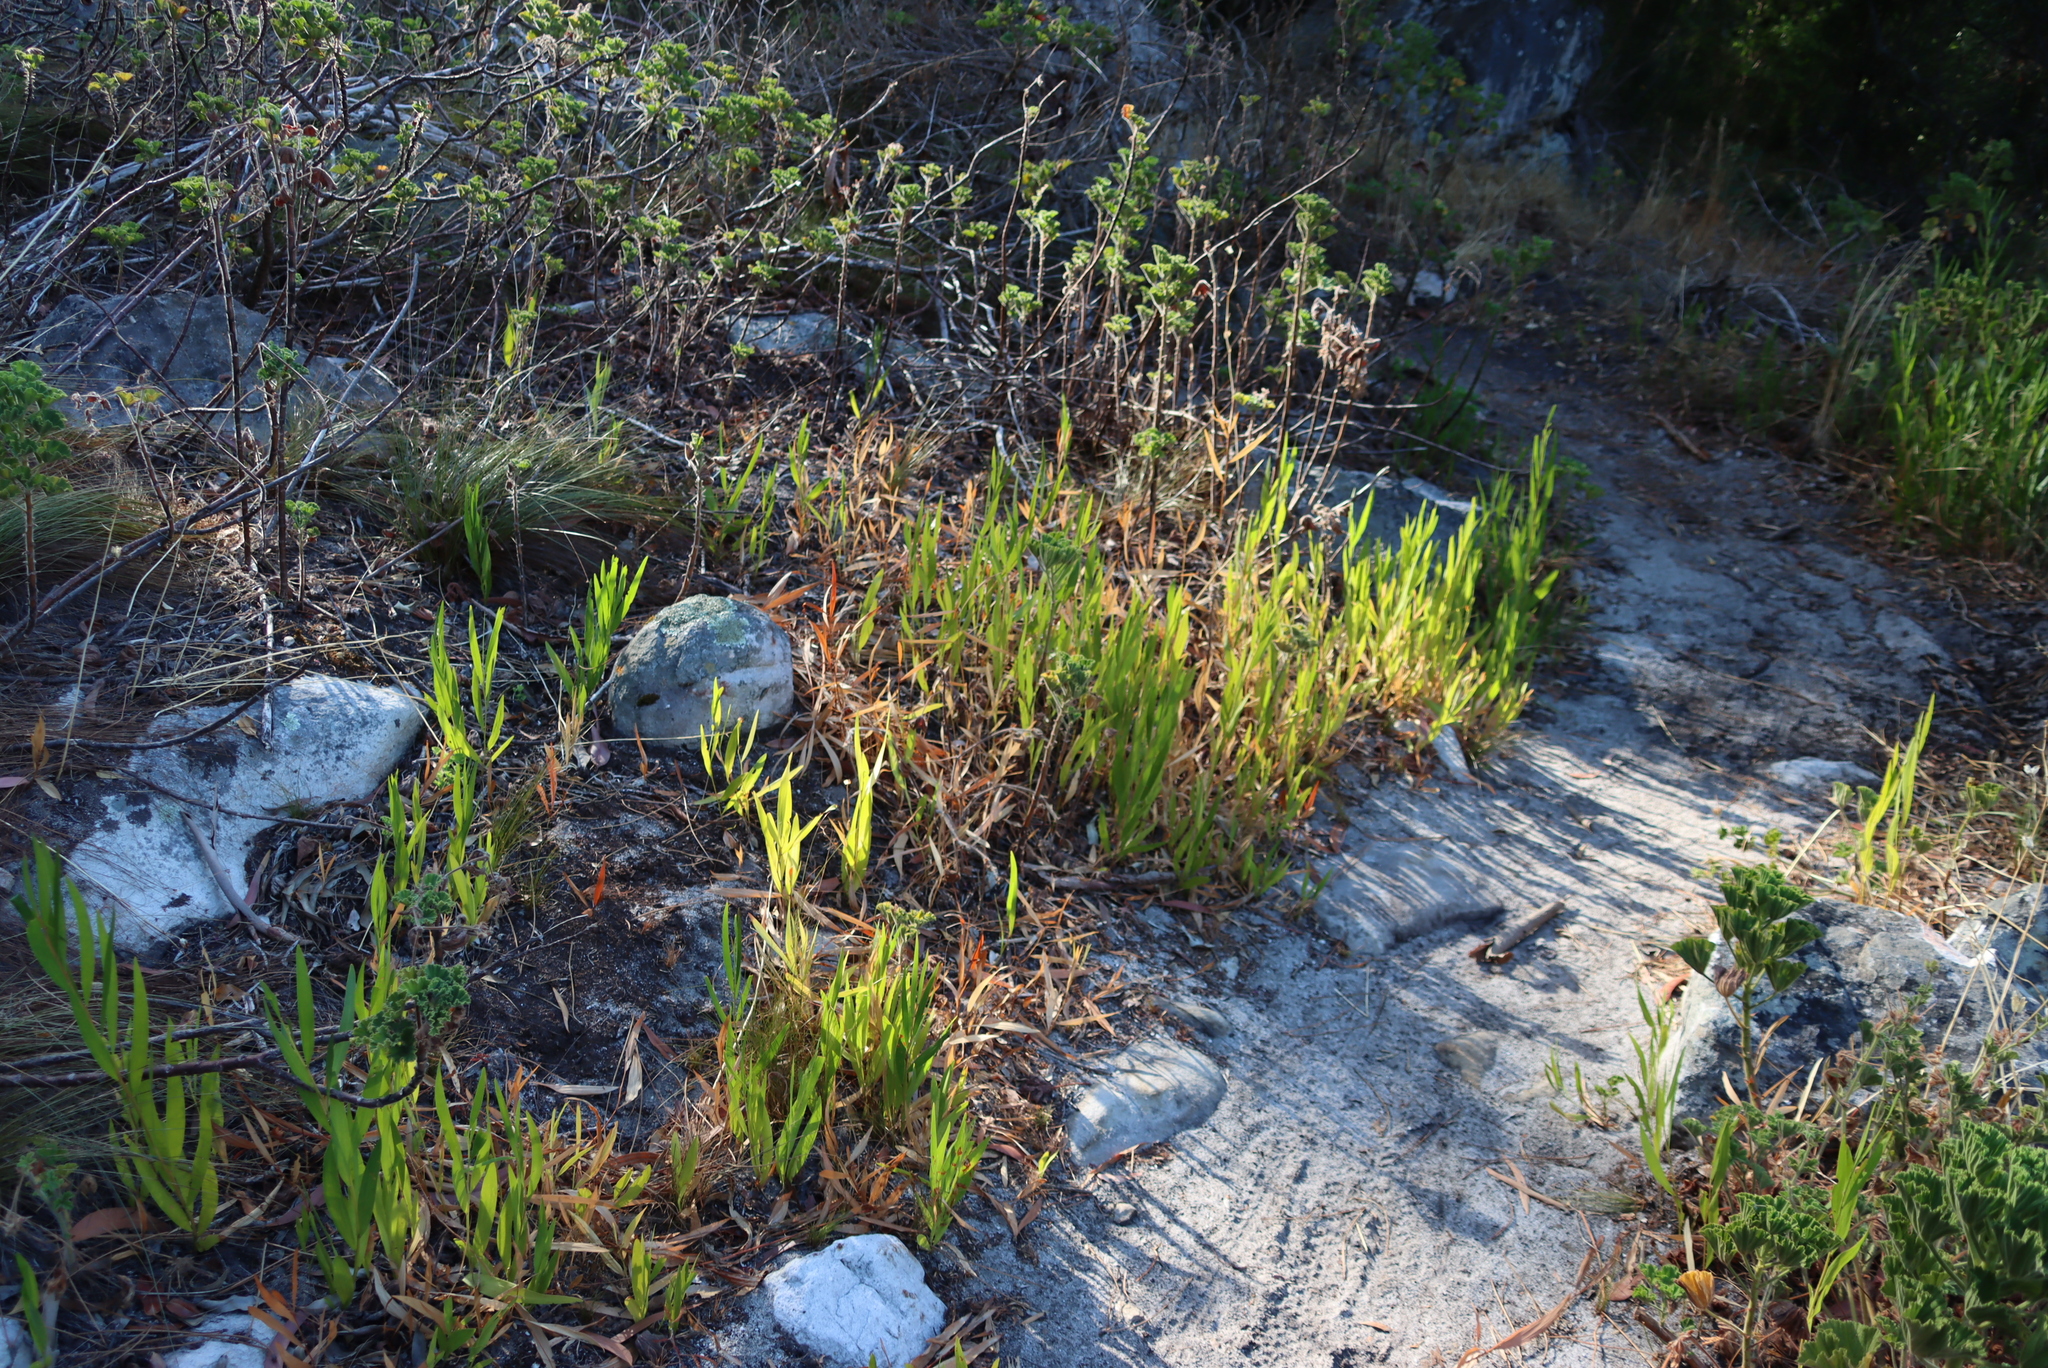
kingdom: Plantae
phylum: Tracheophyta
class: Magnoliopsida
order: Fabales
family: Fabaceae
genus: Acacia
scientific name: Acacia longifolia
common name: Sydney golden wattle
